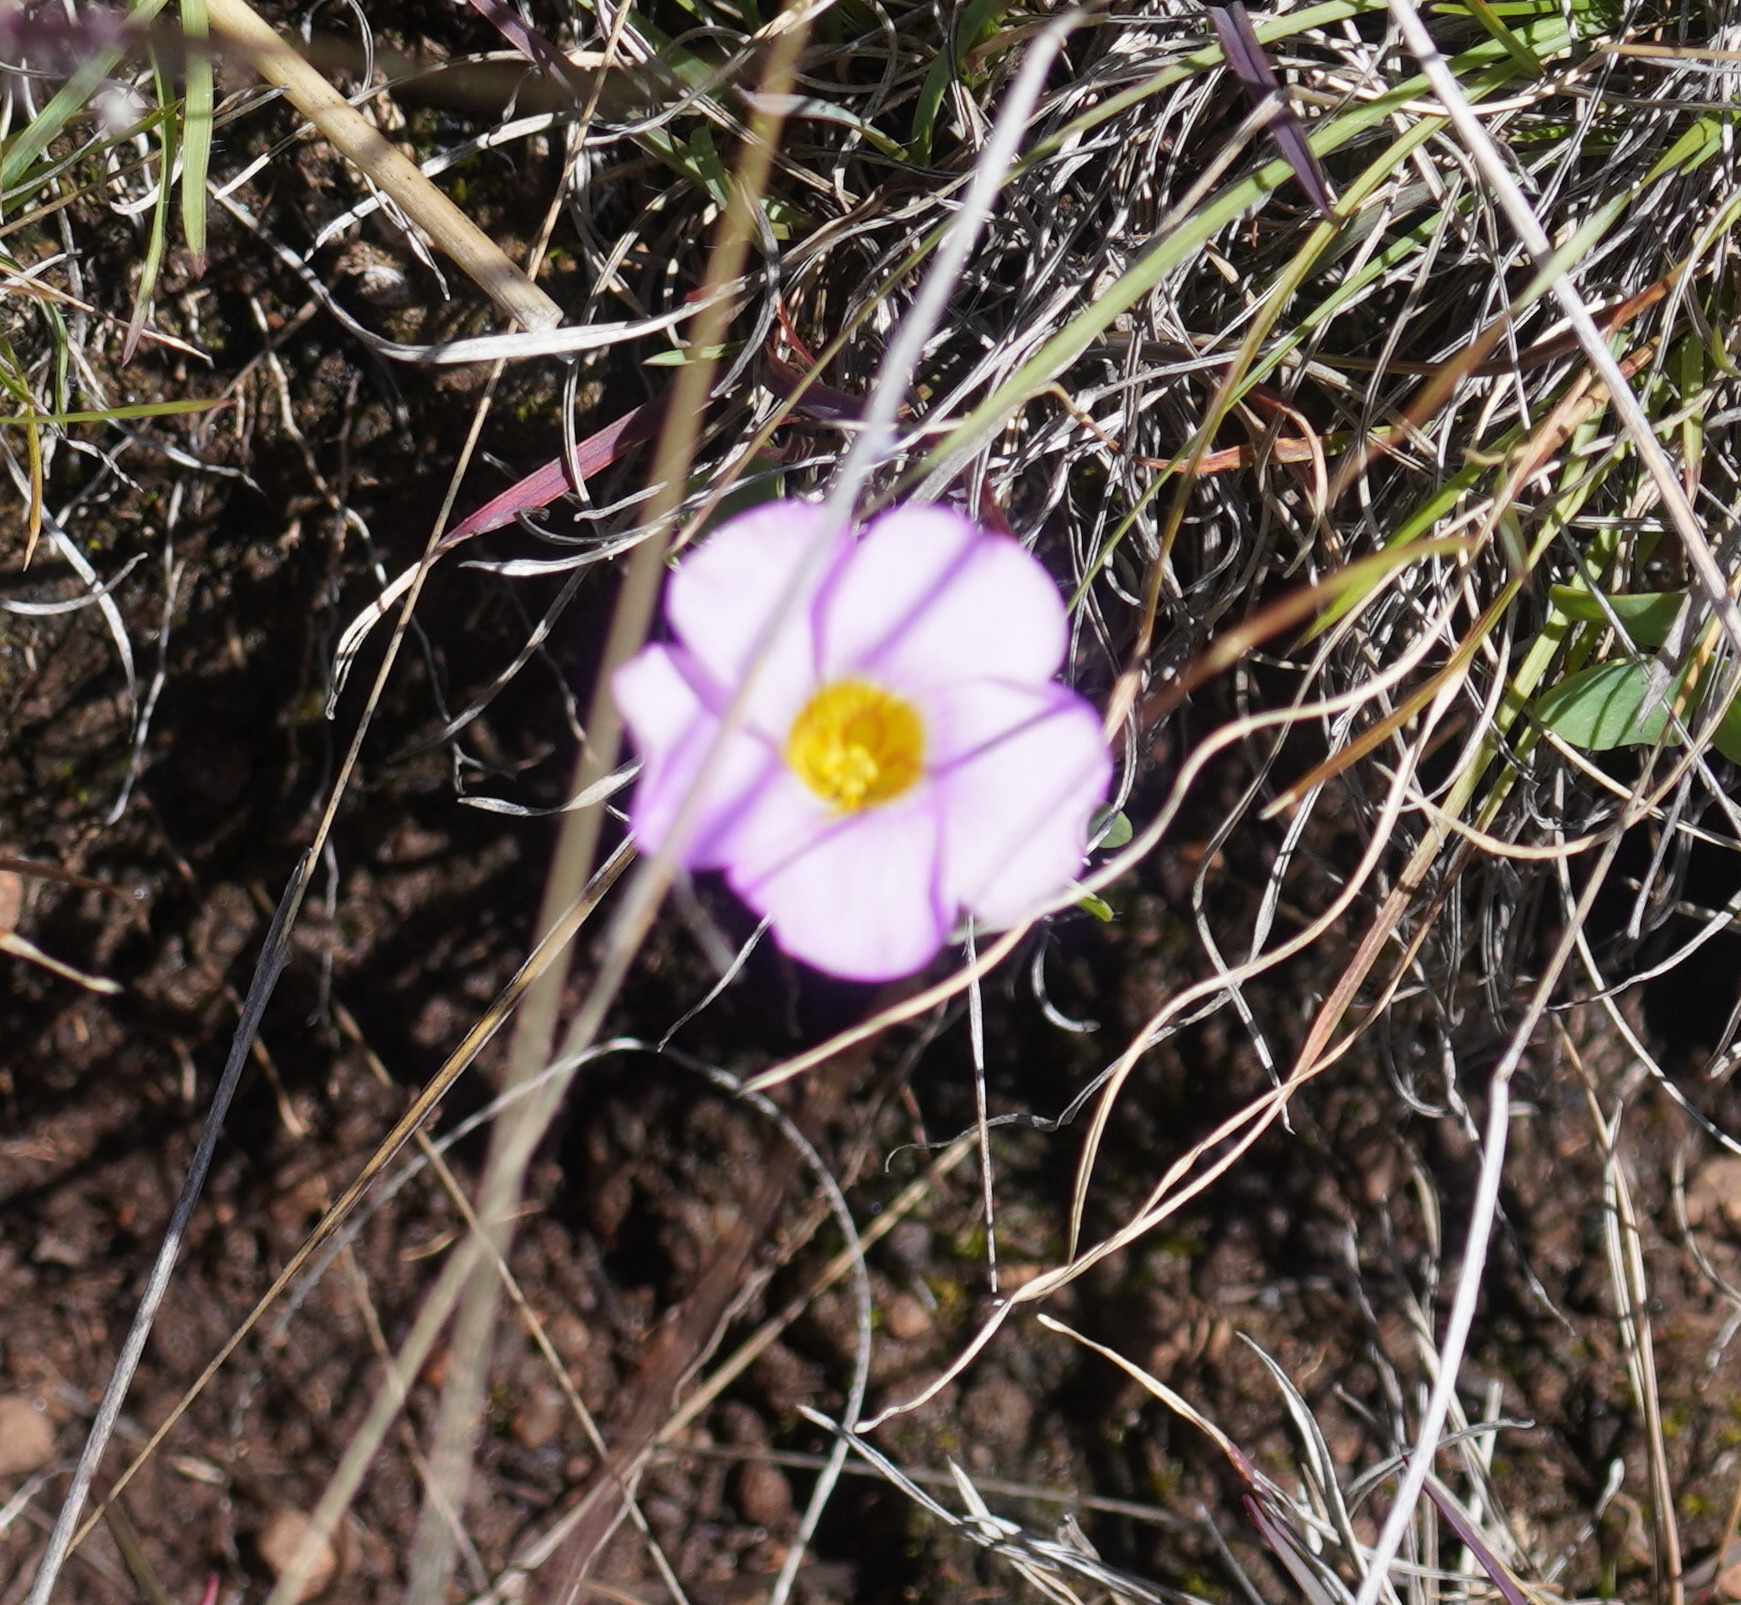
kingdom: Plantae
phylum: Tracheophyta
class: Magnoliopsida
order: Oxalidales
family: Oxalidaceae
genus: Oxalis
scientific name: Oxalis obliquifolia
